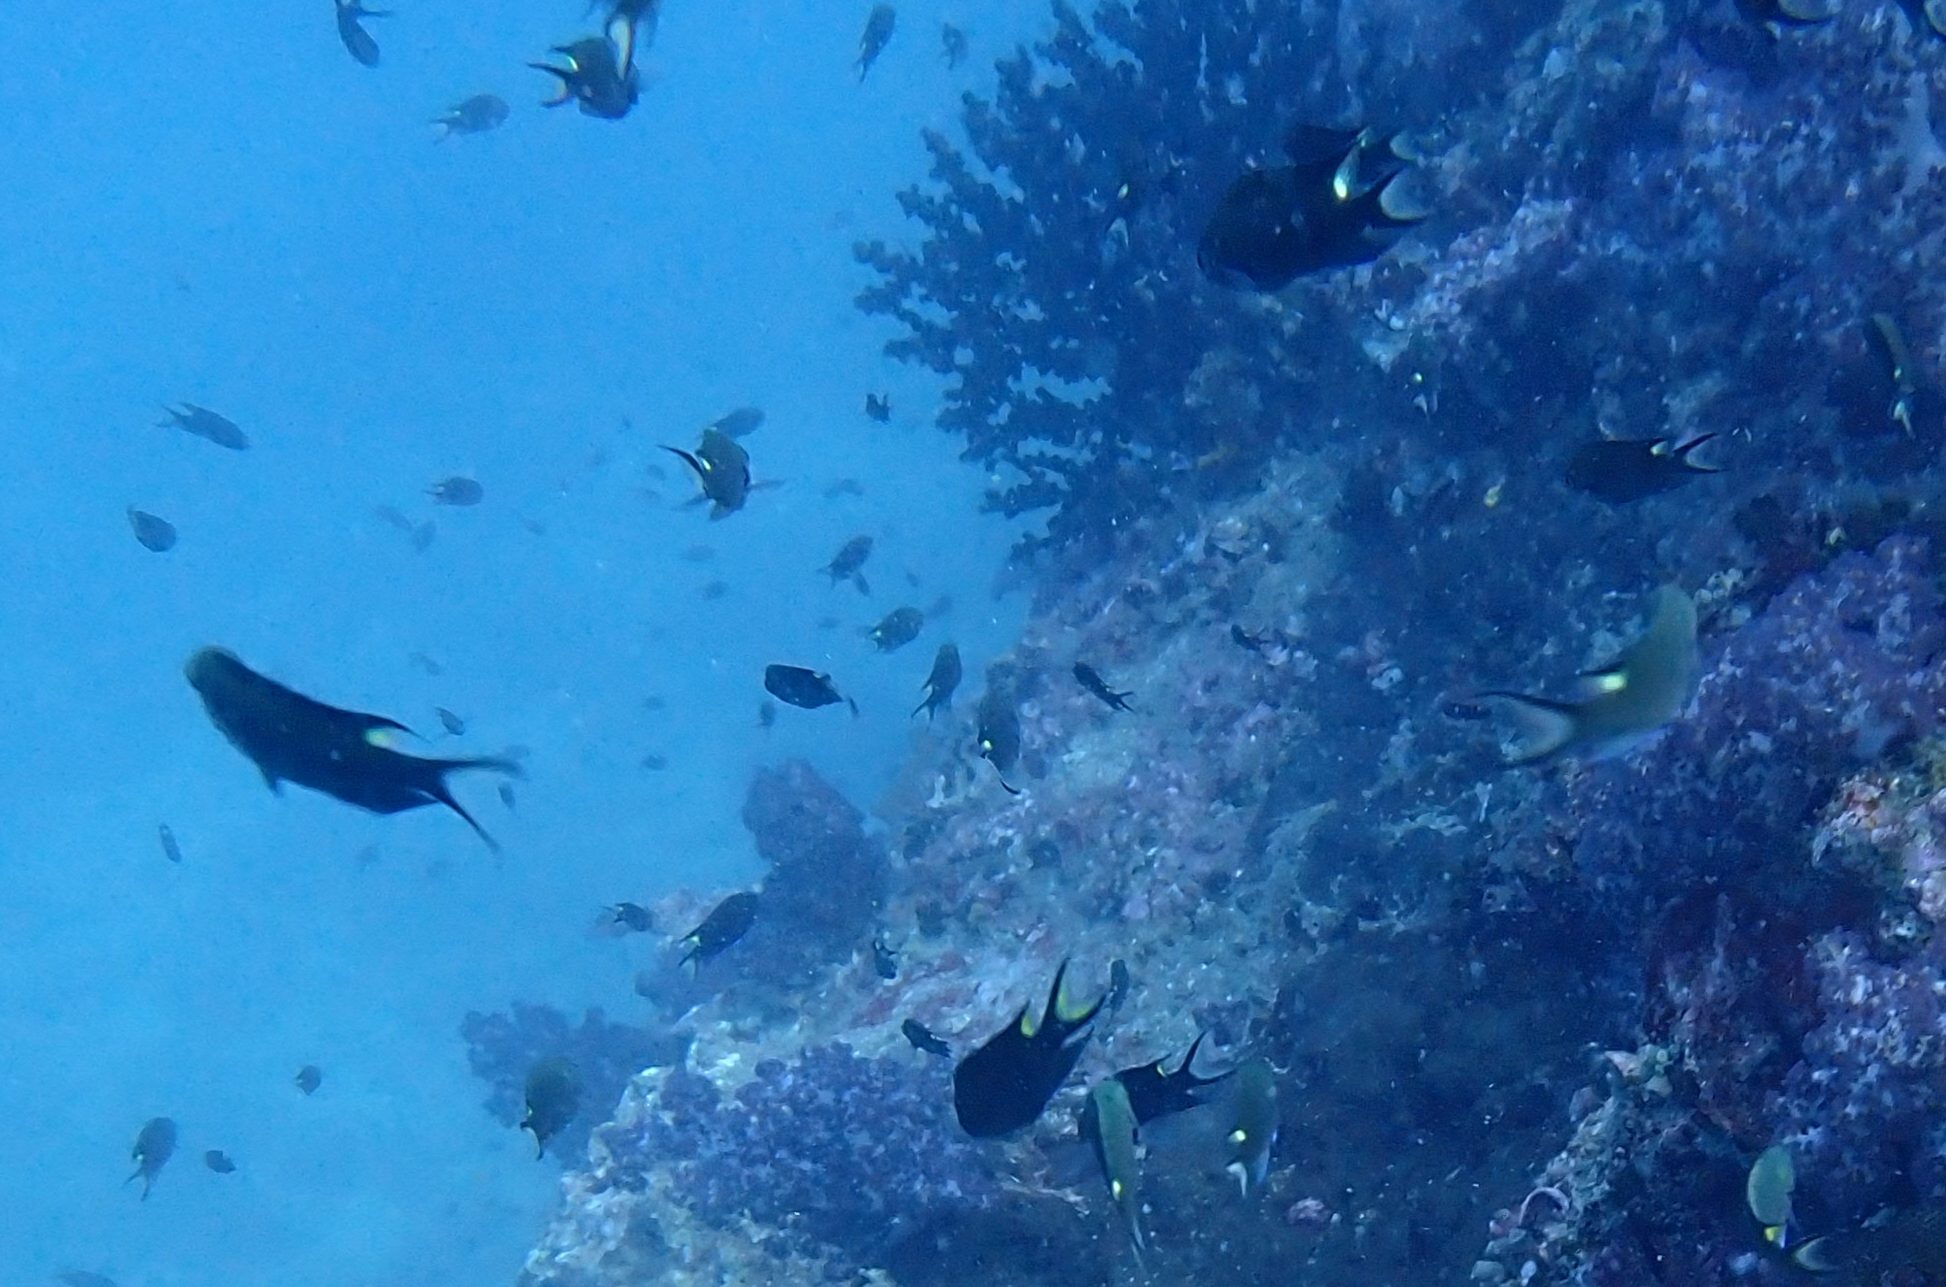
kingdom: Animalia
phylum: Chordata
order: Perciformes
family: Pomacentridae
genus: Neopomacentrus
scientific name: Neopomacentrus cyanomos
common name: Regal demoiselle
